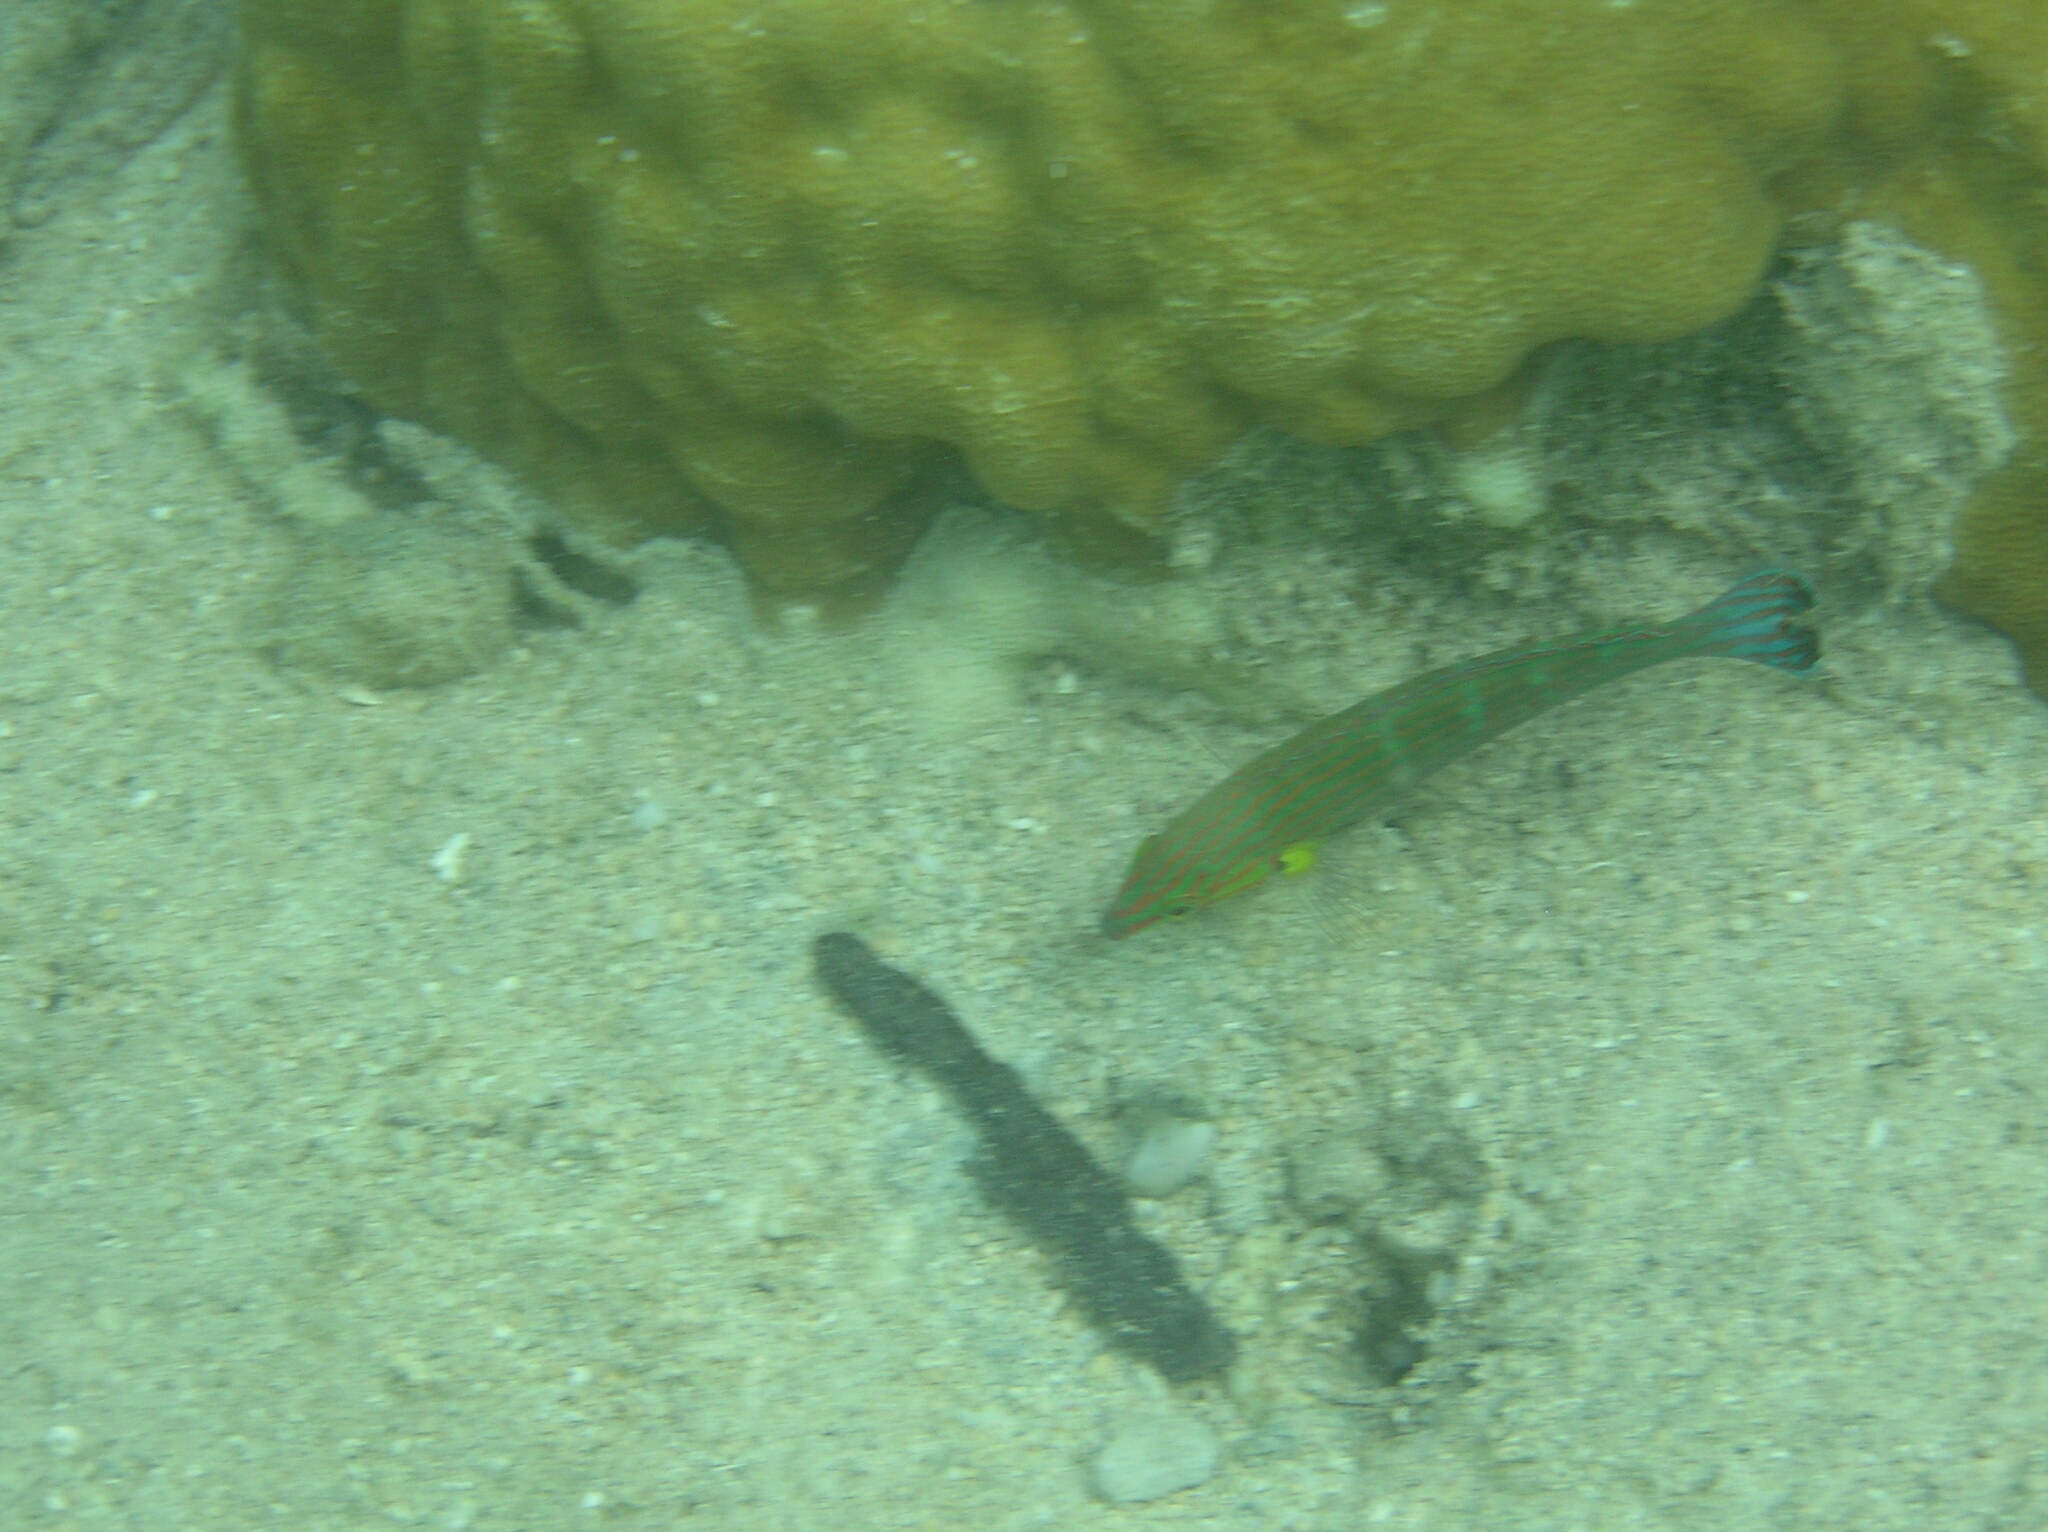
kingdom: Animalia
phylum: Chordata
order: Perciformes
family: Labridae
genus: Halichoeres
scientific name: Halichoeres melanurus
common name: Hoeven's wrasse
